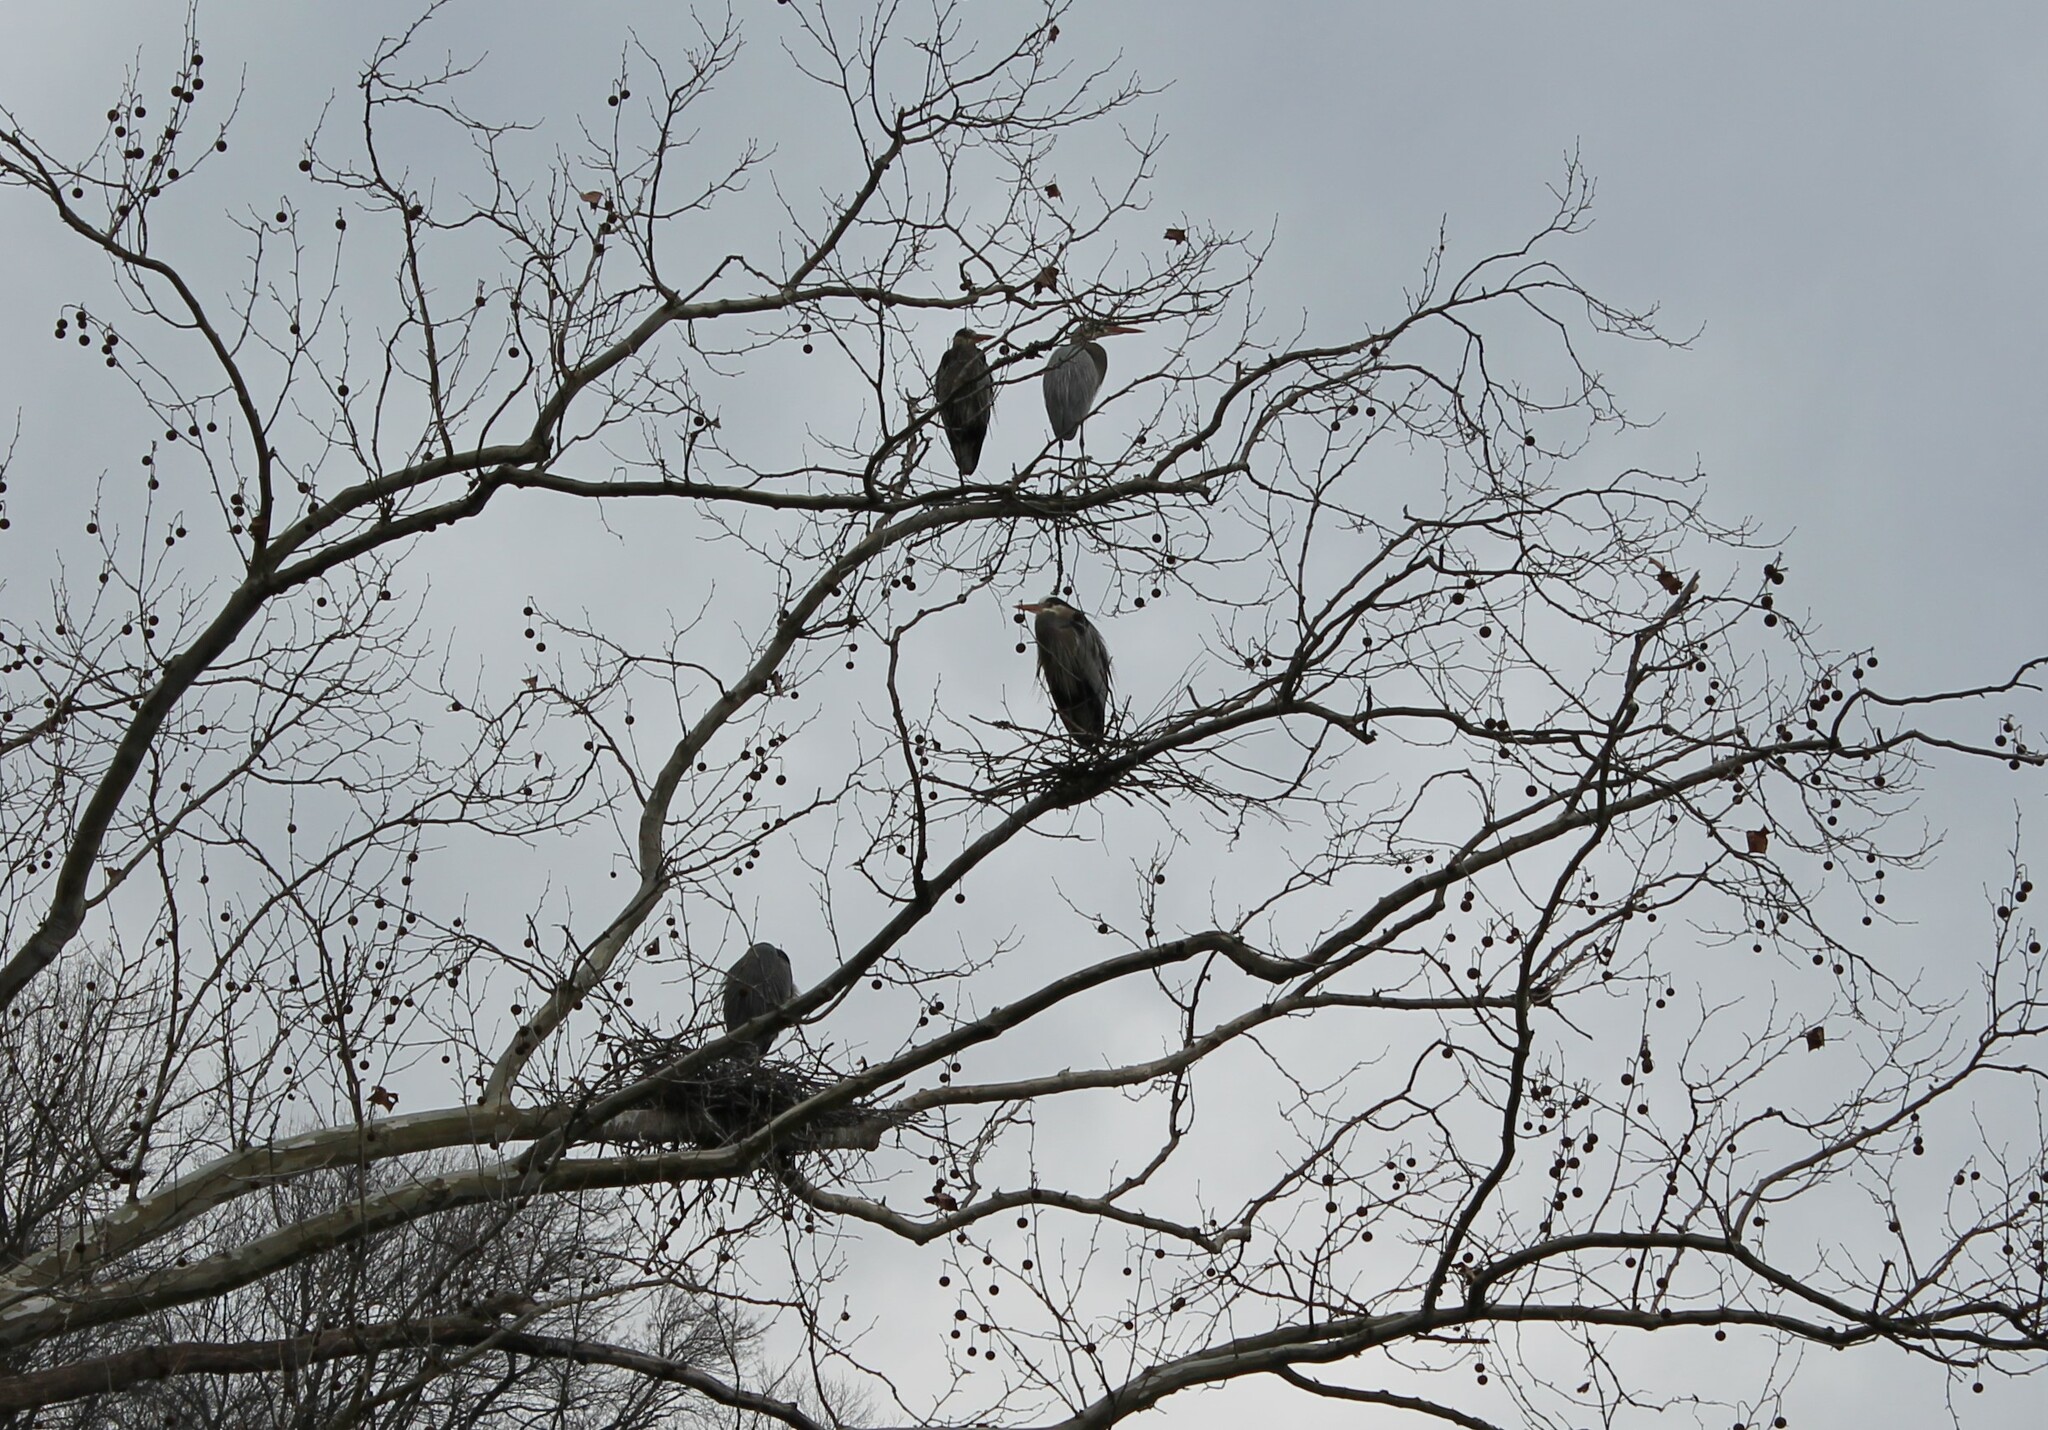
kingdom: Animalia
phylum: Chordata
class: Aves
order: Pelecaniformes
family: Ardeidae
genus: Ardea
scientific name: Ardea herodias
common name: Great blue heron
